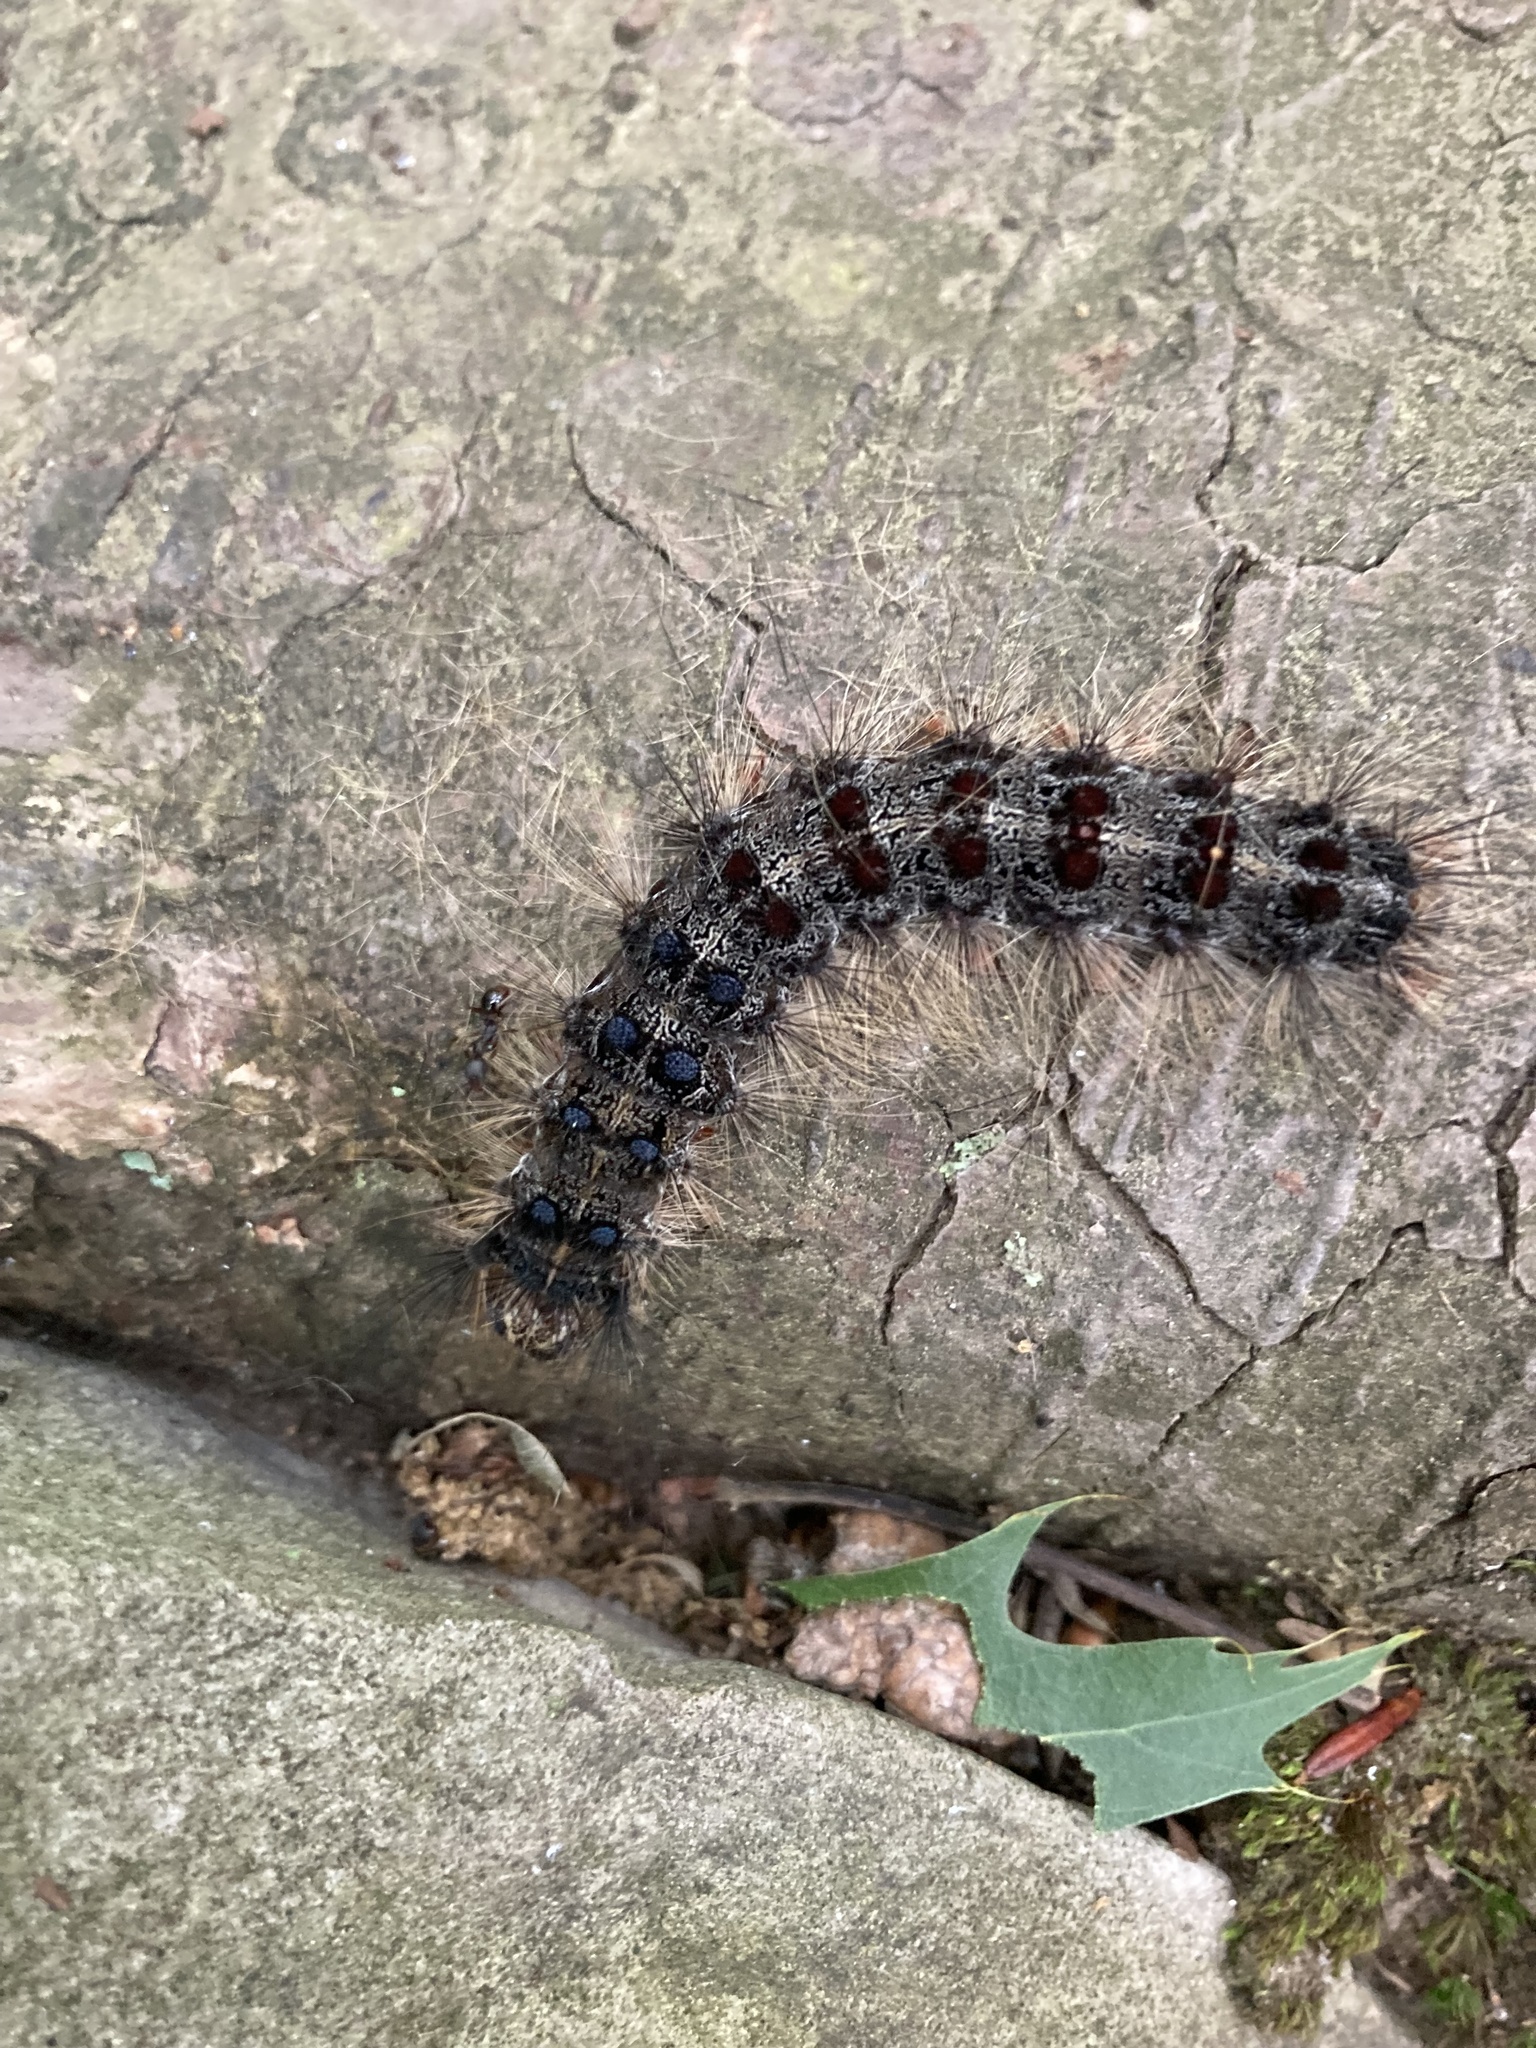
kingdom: Animalia
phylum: Arthropoda
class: Insecta
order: Lepidoptera
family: Erebidae
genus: Lymantria
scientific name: Lymantria dispar
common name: Gypsy moth
